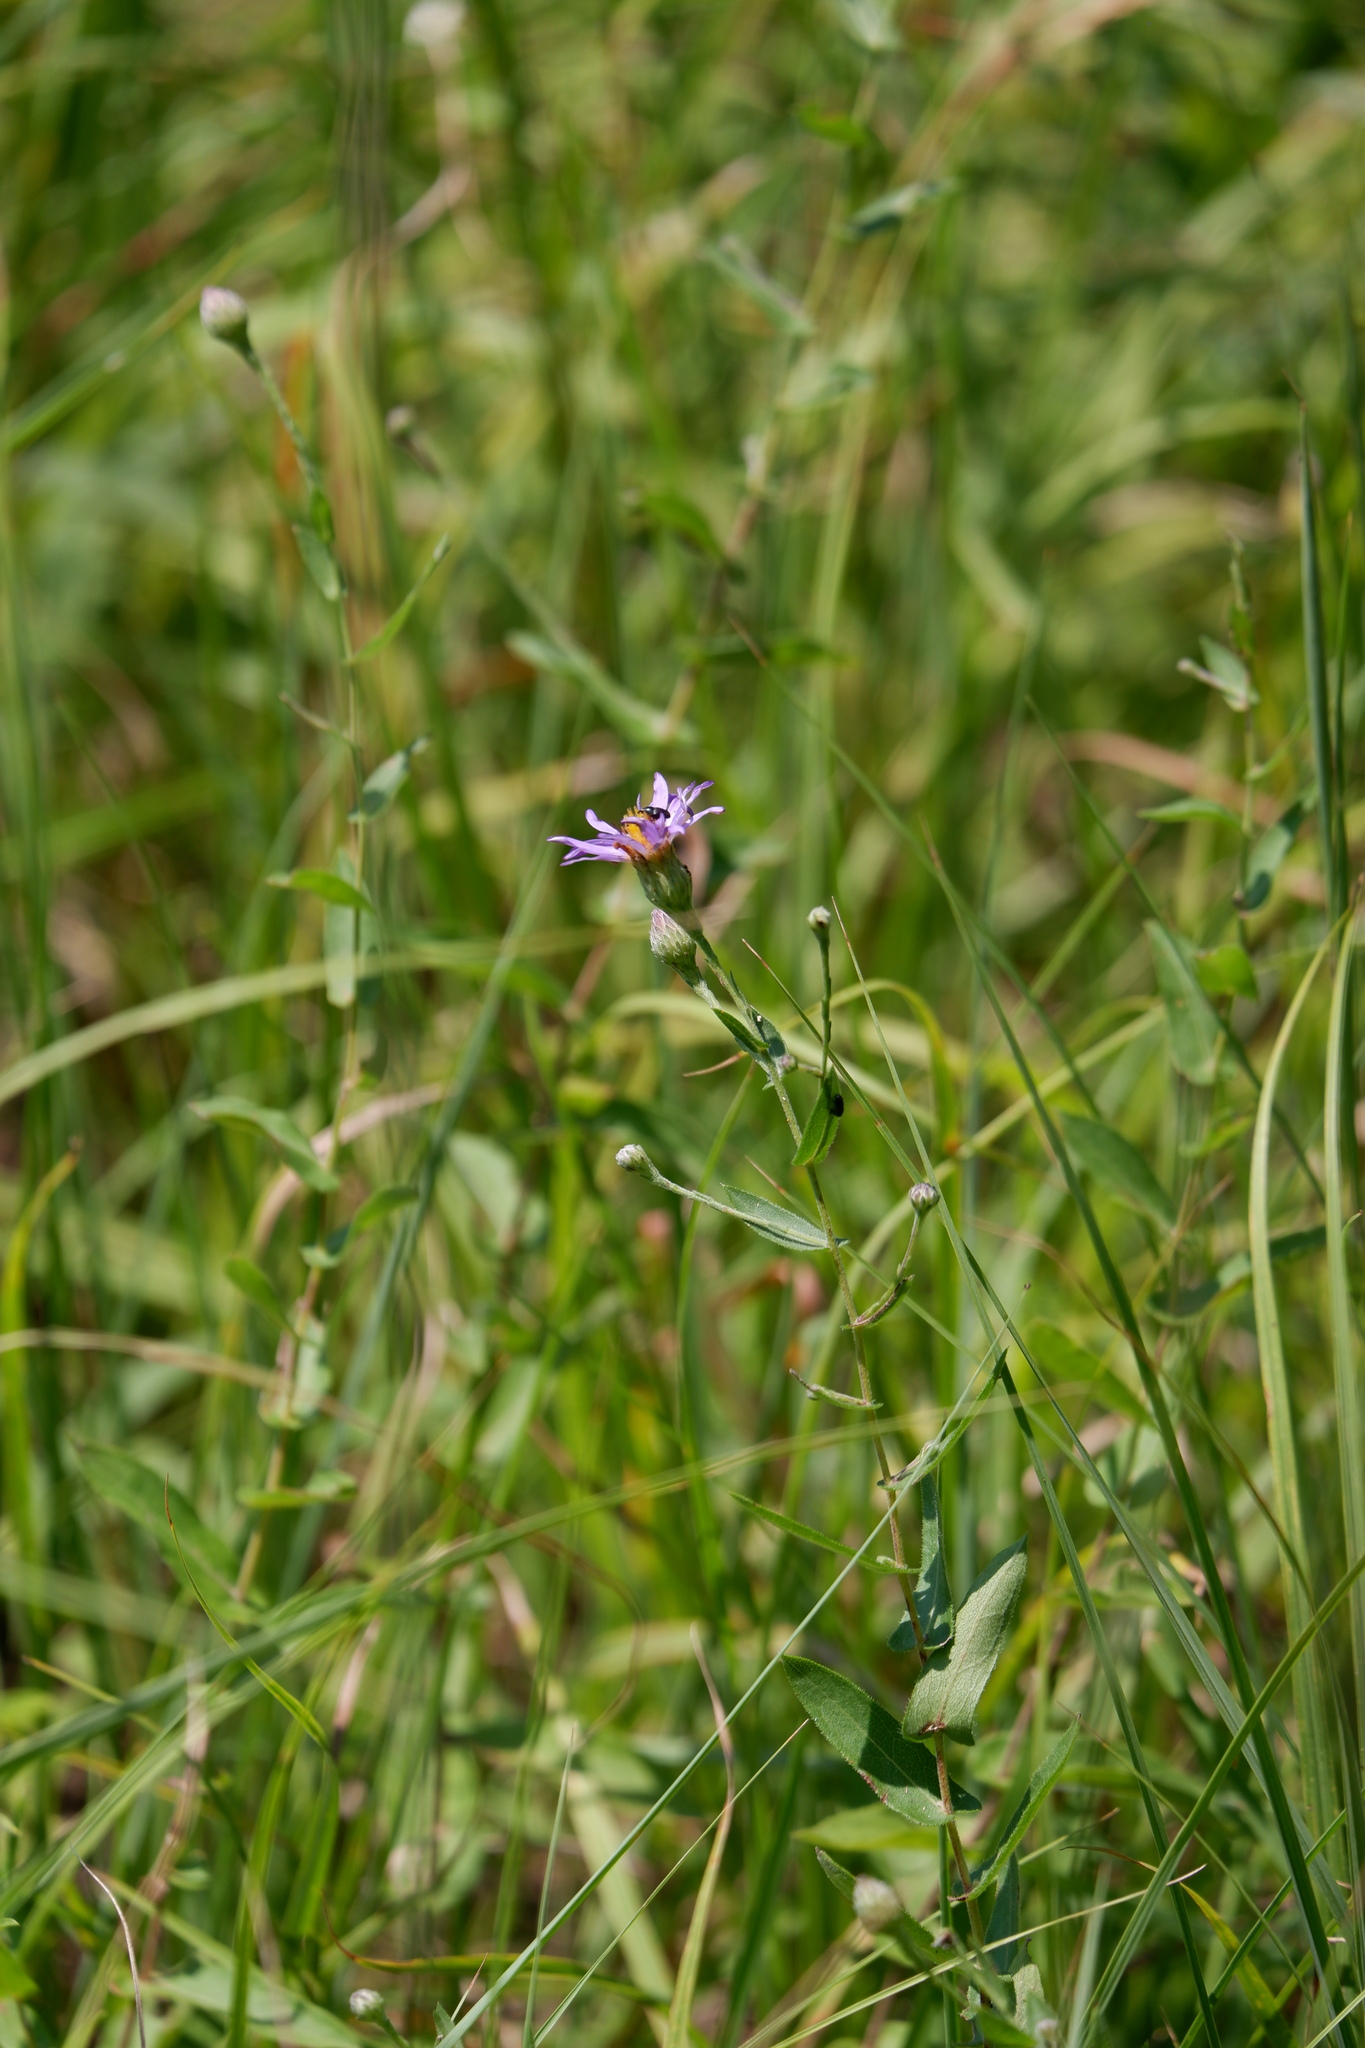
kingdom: Plantae
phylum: Tracheophyta
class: Magnoliopsida
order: Asterales
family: Asteraceae
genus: Symphyotrichum
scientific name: Symphyotrichum patens
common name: Late purple aster
